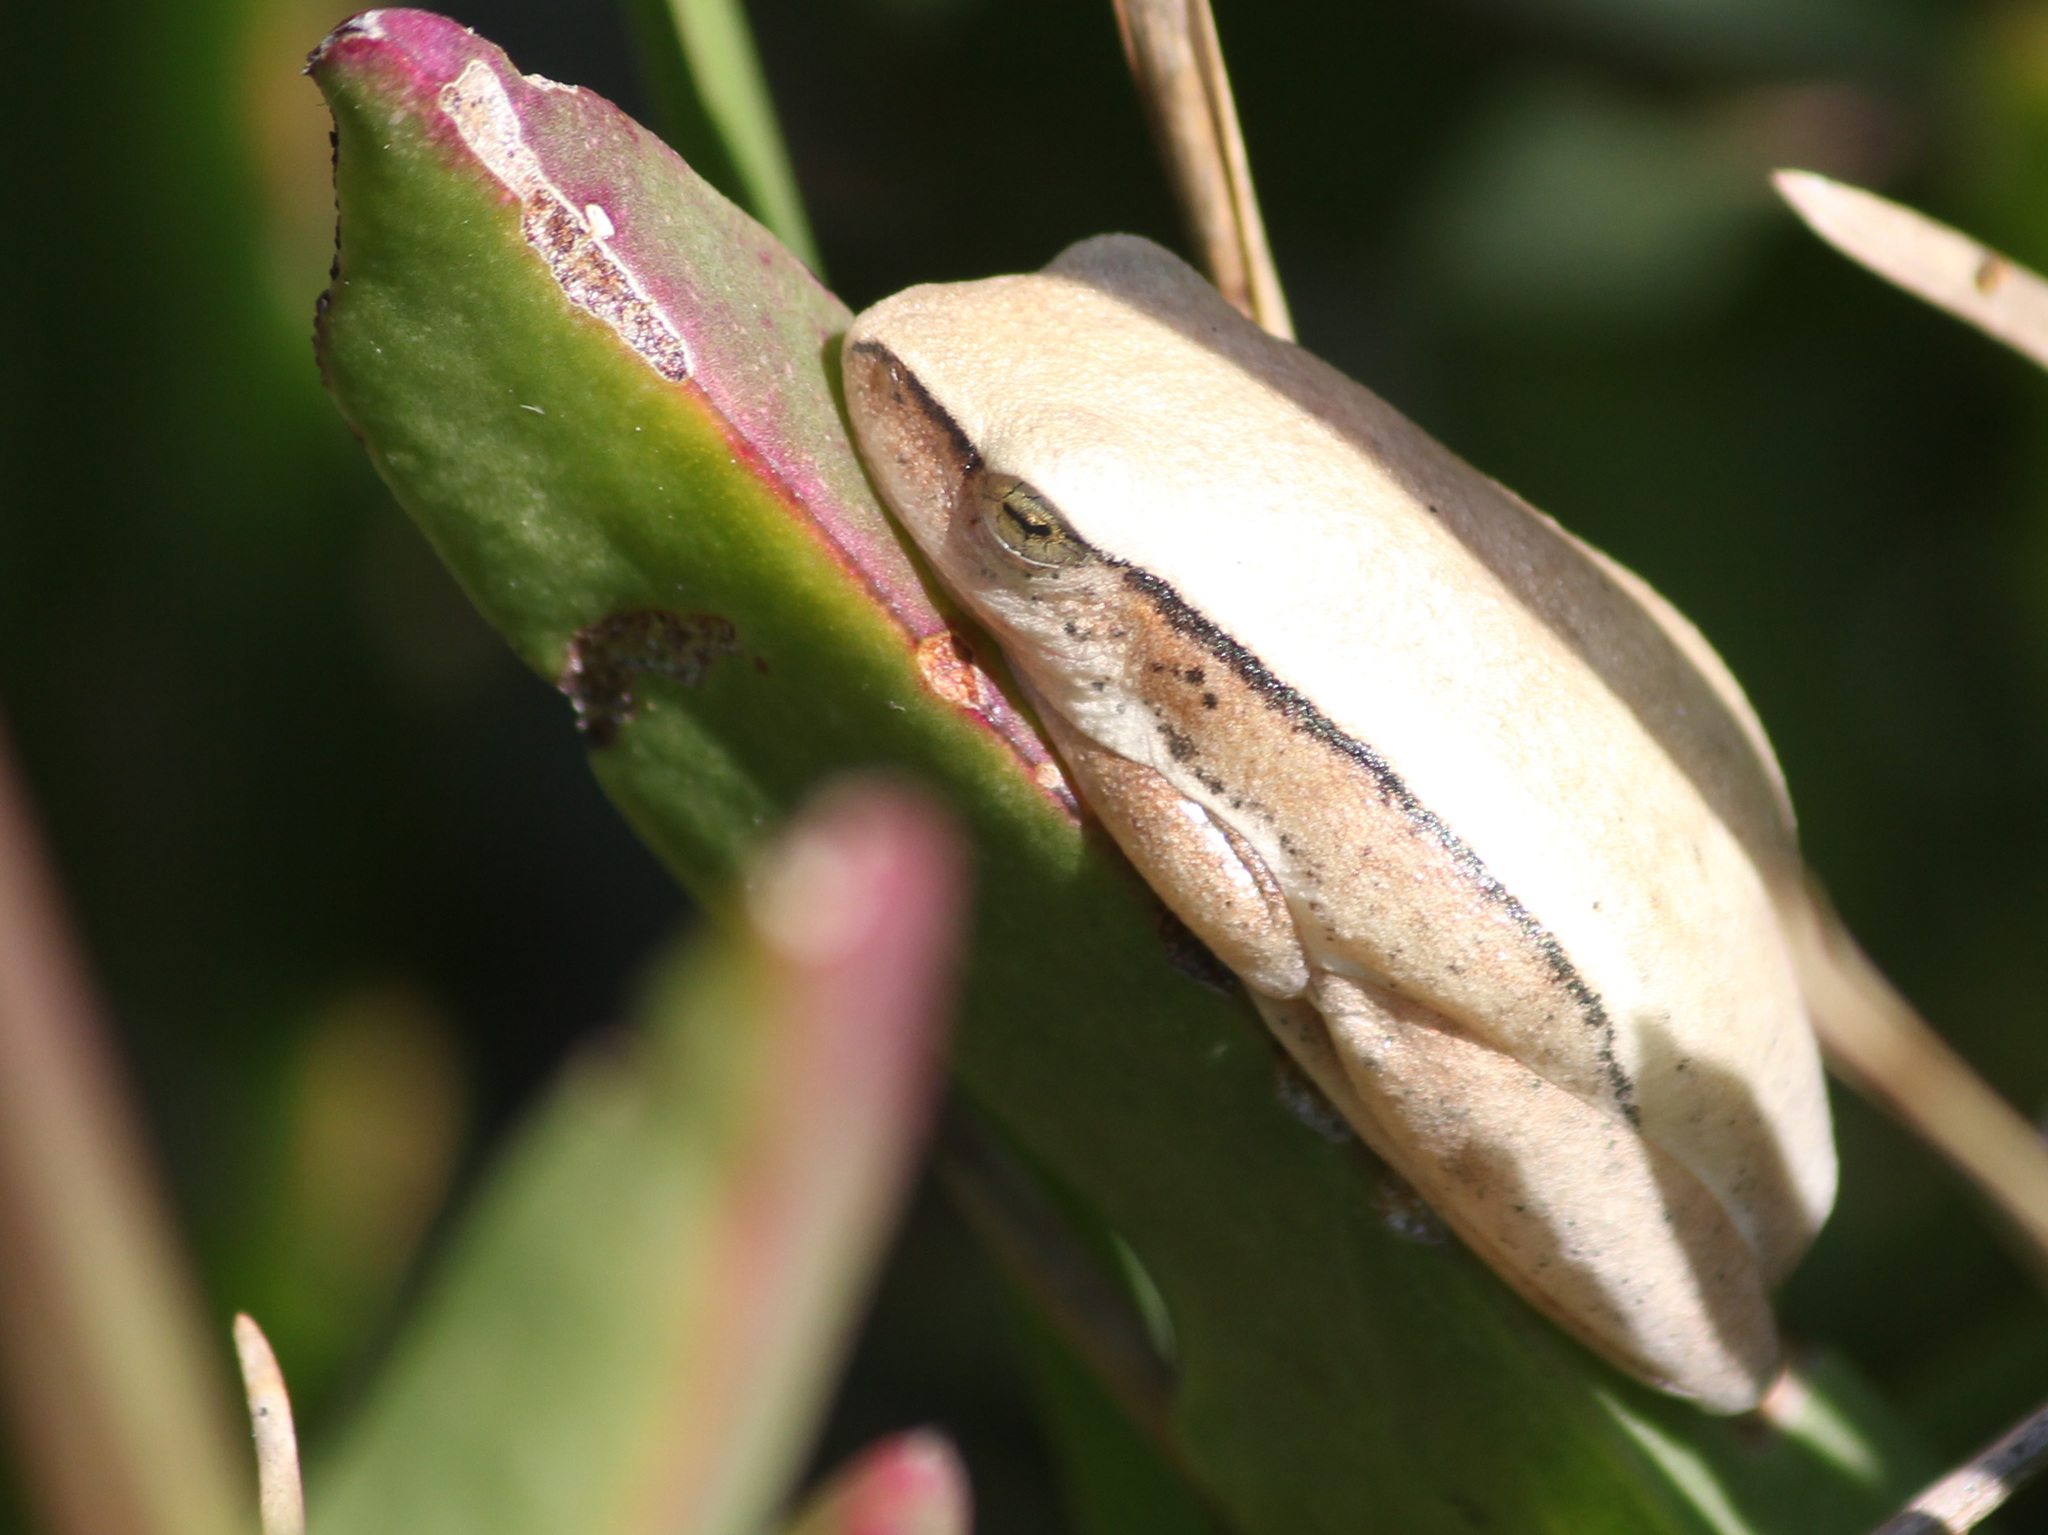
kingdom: Animalia
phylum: Chordata
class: Amphibia
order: Anura
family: Hyperoliidae
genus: Hyperolius
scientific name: Hyperolius horstockii
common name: Arum lily frog
